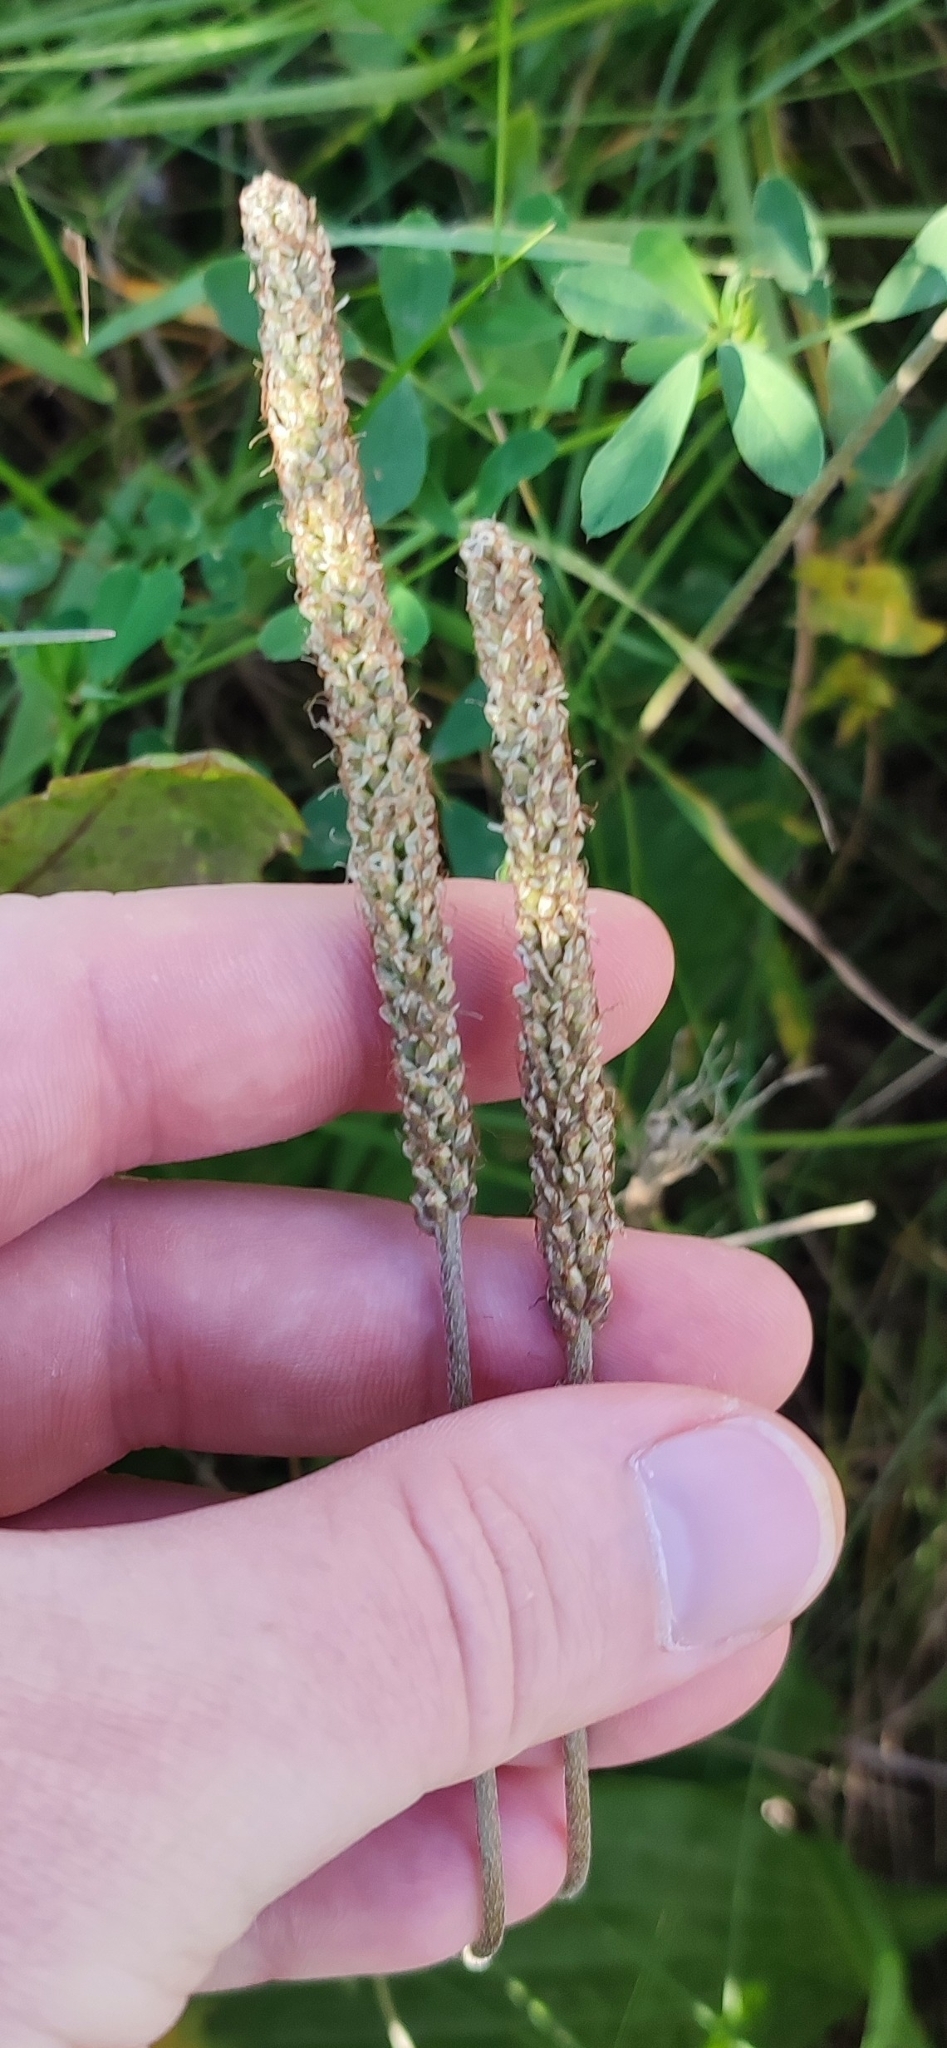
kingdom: Plantae
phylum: Tracheophyta
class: Magnoliopsida
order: Lamiales
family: Plantaginaceae
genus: Plantago
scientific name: Plantago urvillei
